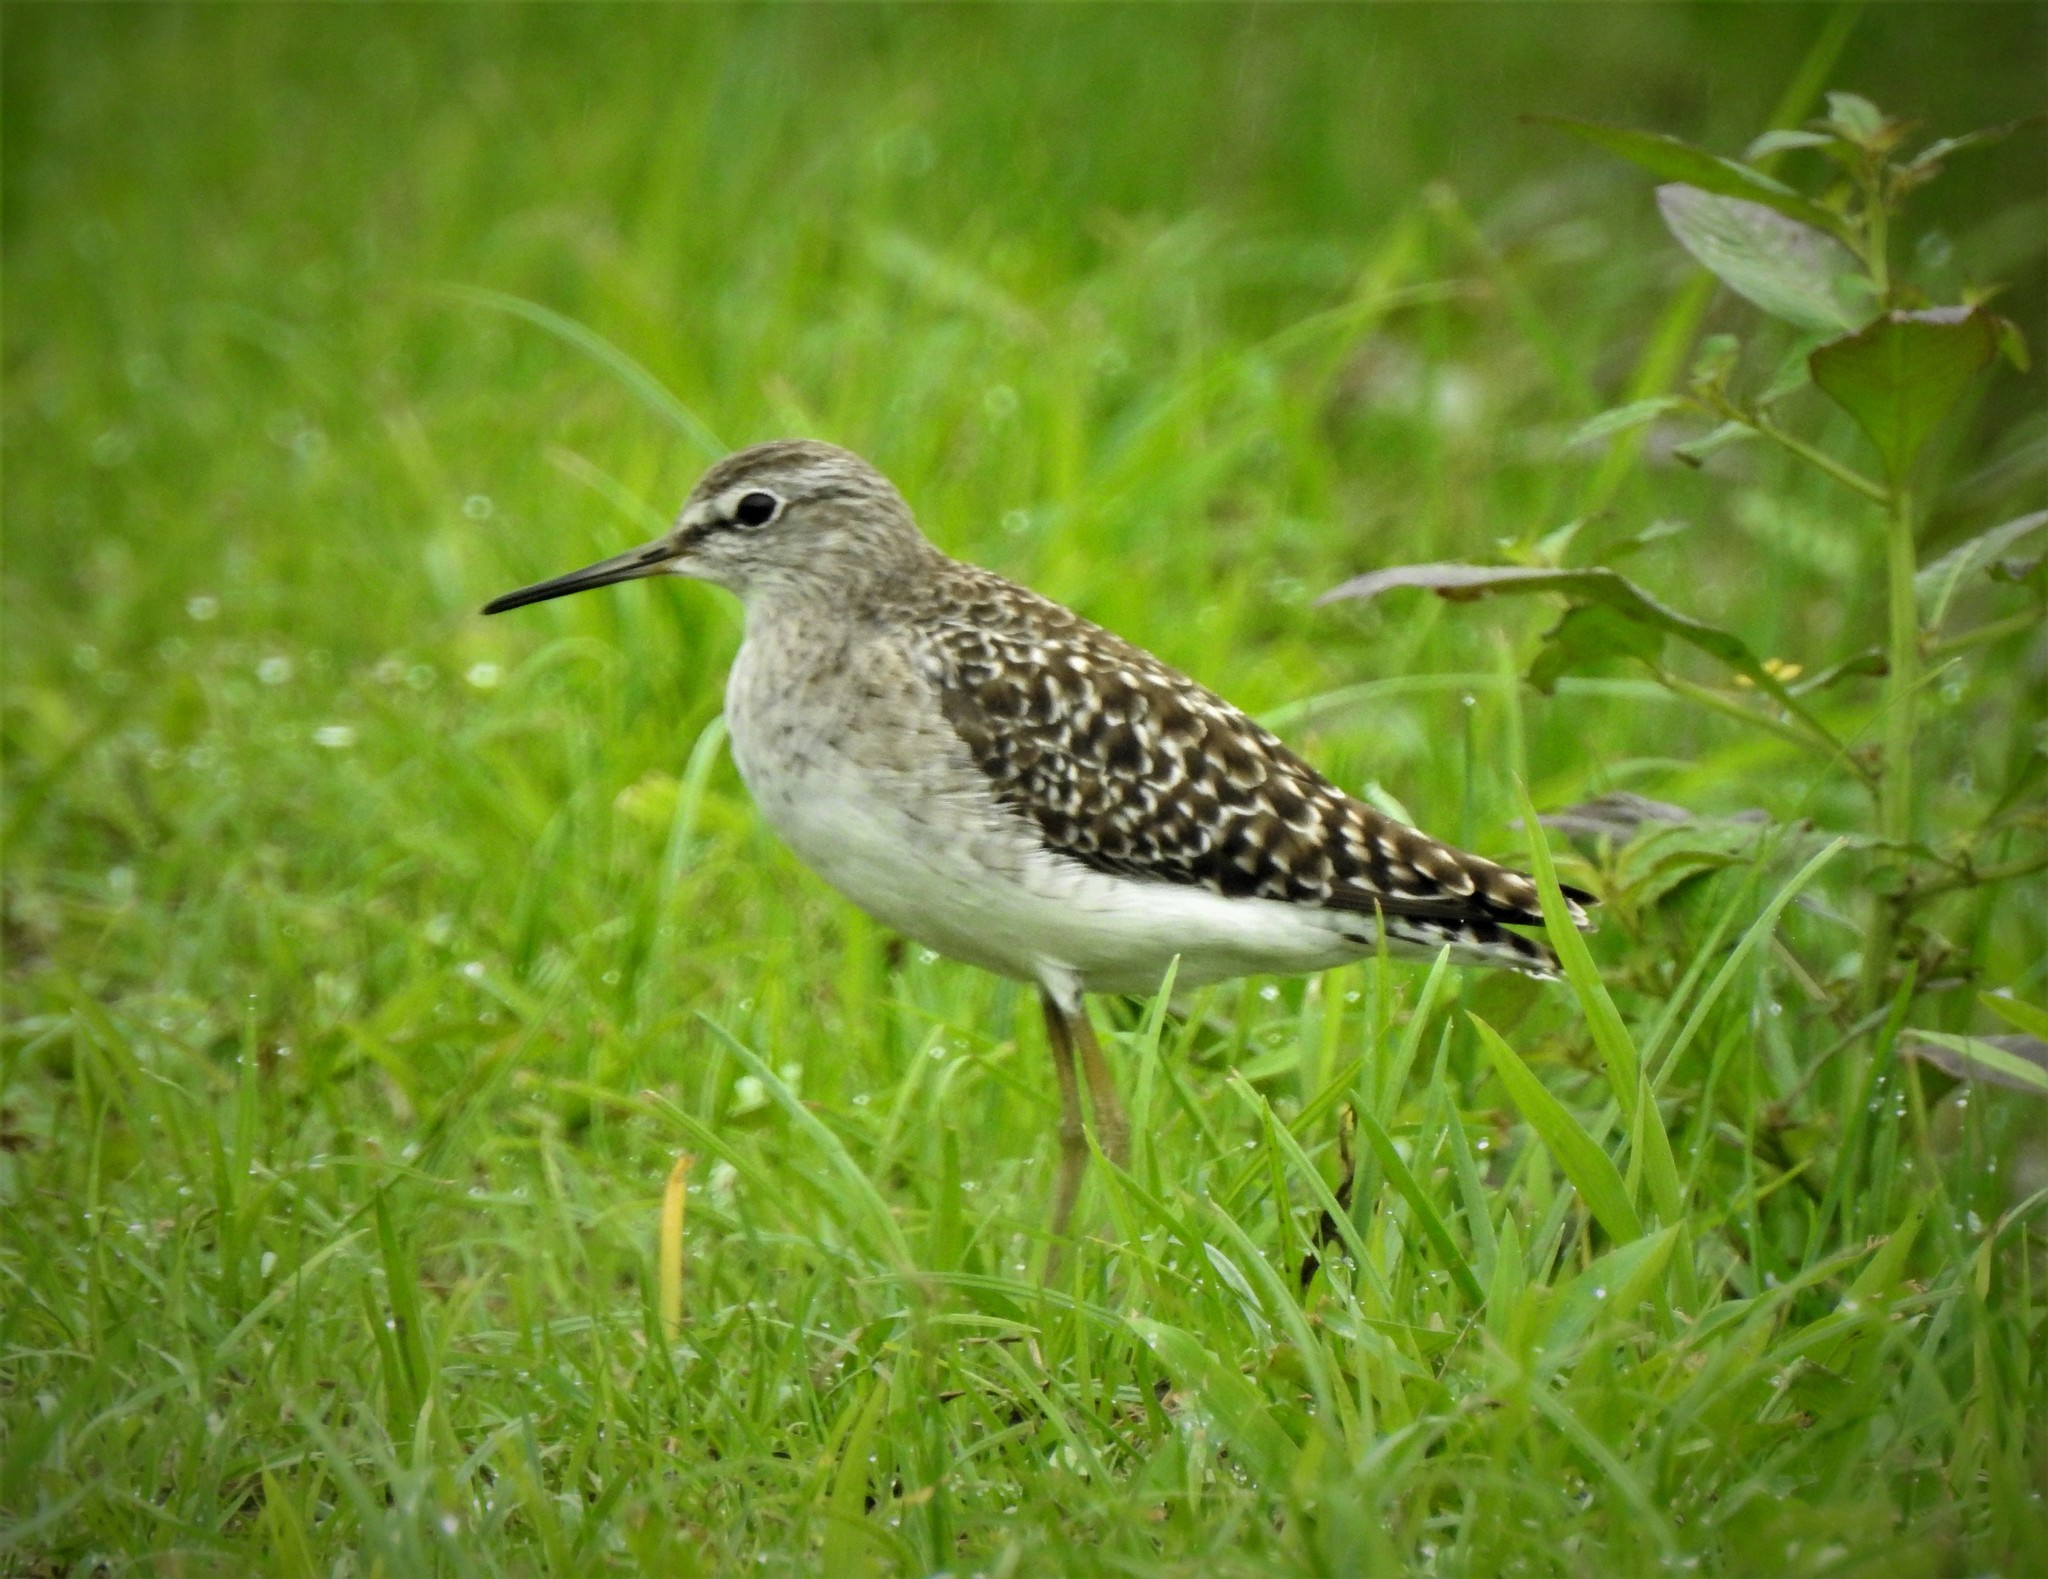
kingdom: Animalia
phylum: Chordata
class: Aves
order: Charadriiformes
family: Scolopacidae
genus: Tringa
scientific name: Tringa glareola
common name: Wood sandpiper
